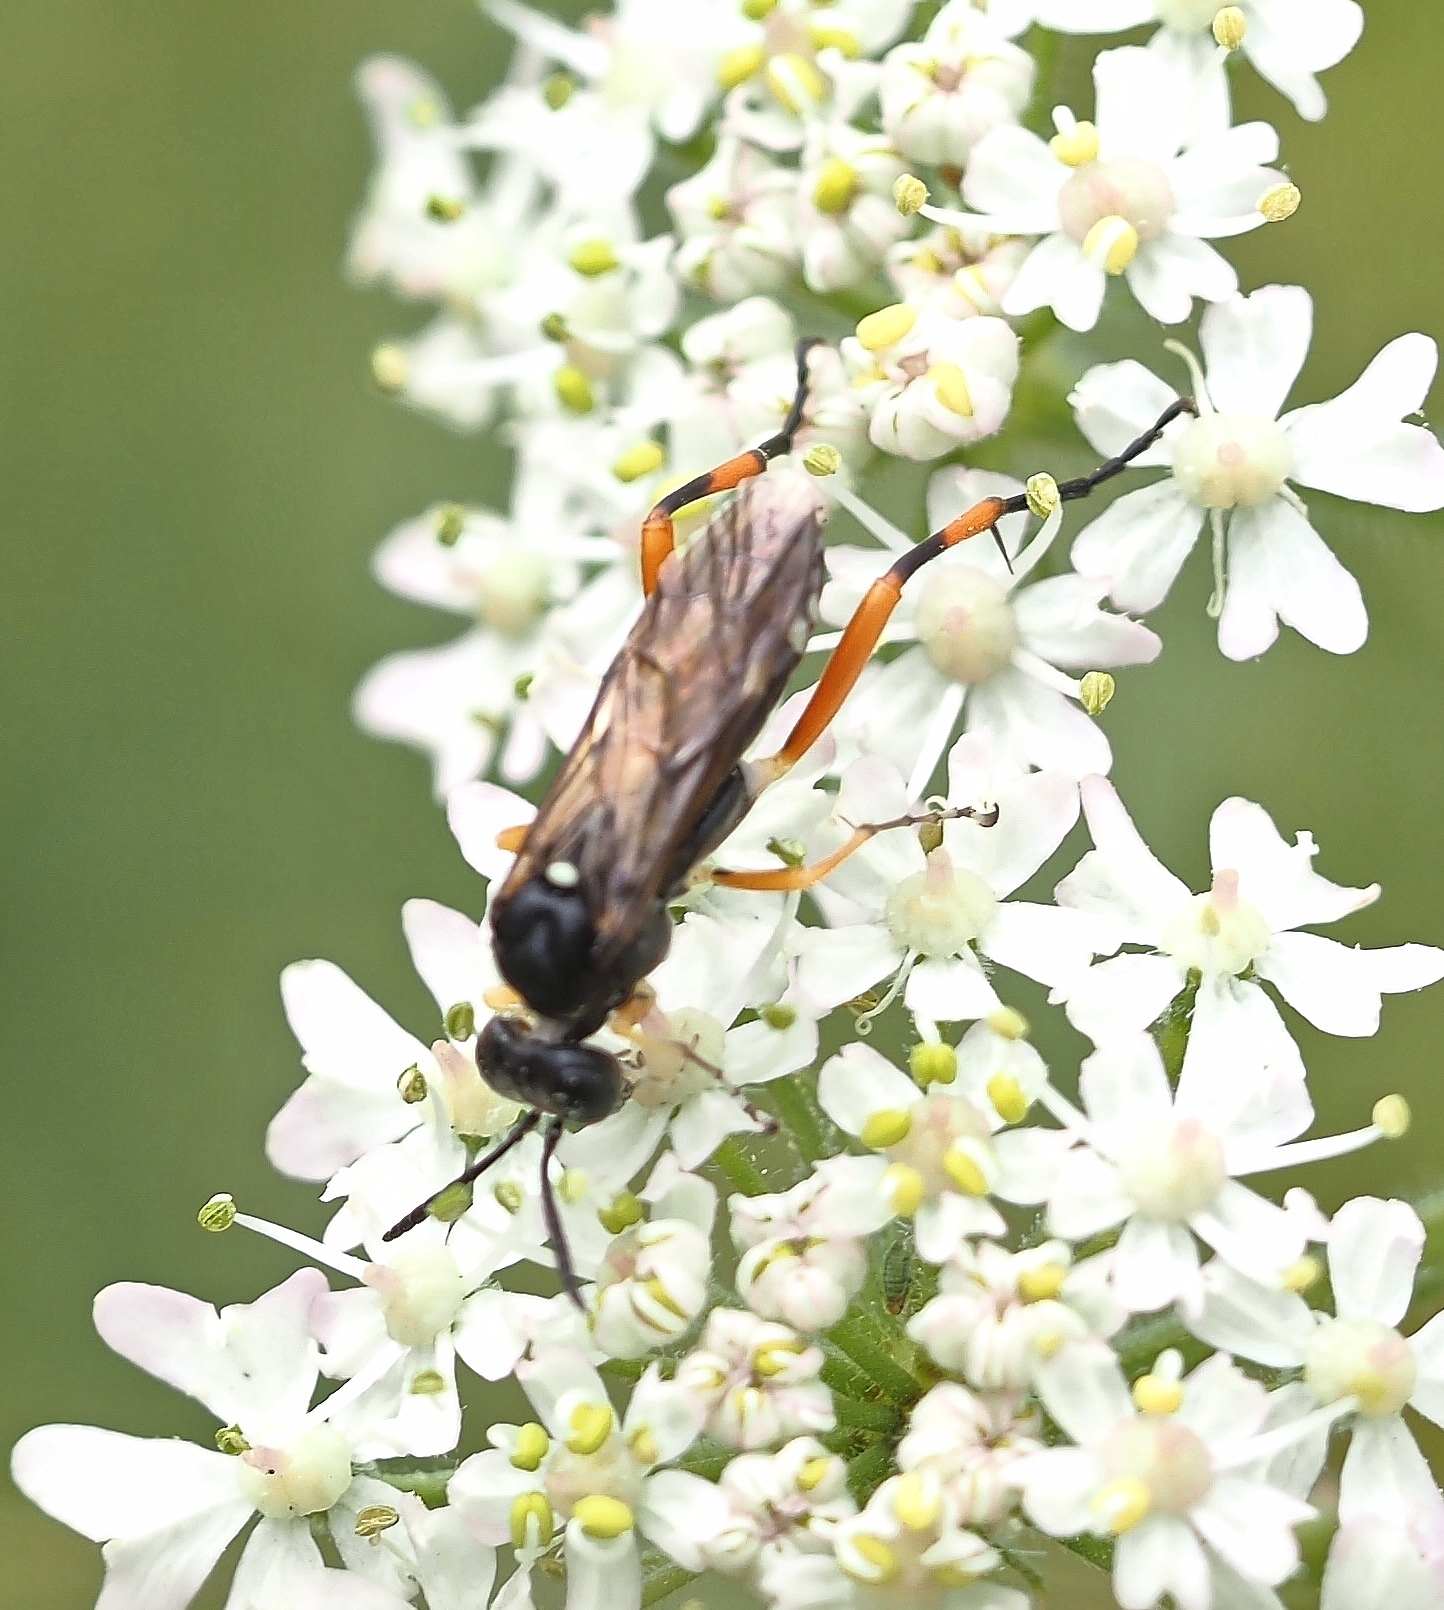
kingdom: Animalia
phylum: Arthropoda
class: Insecta
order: Hymenoptera
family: Tenthredinidae
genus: Macrophya
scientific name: Macrophya diversipes
